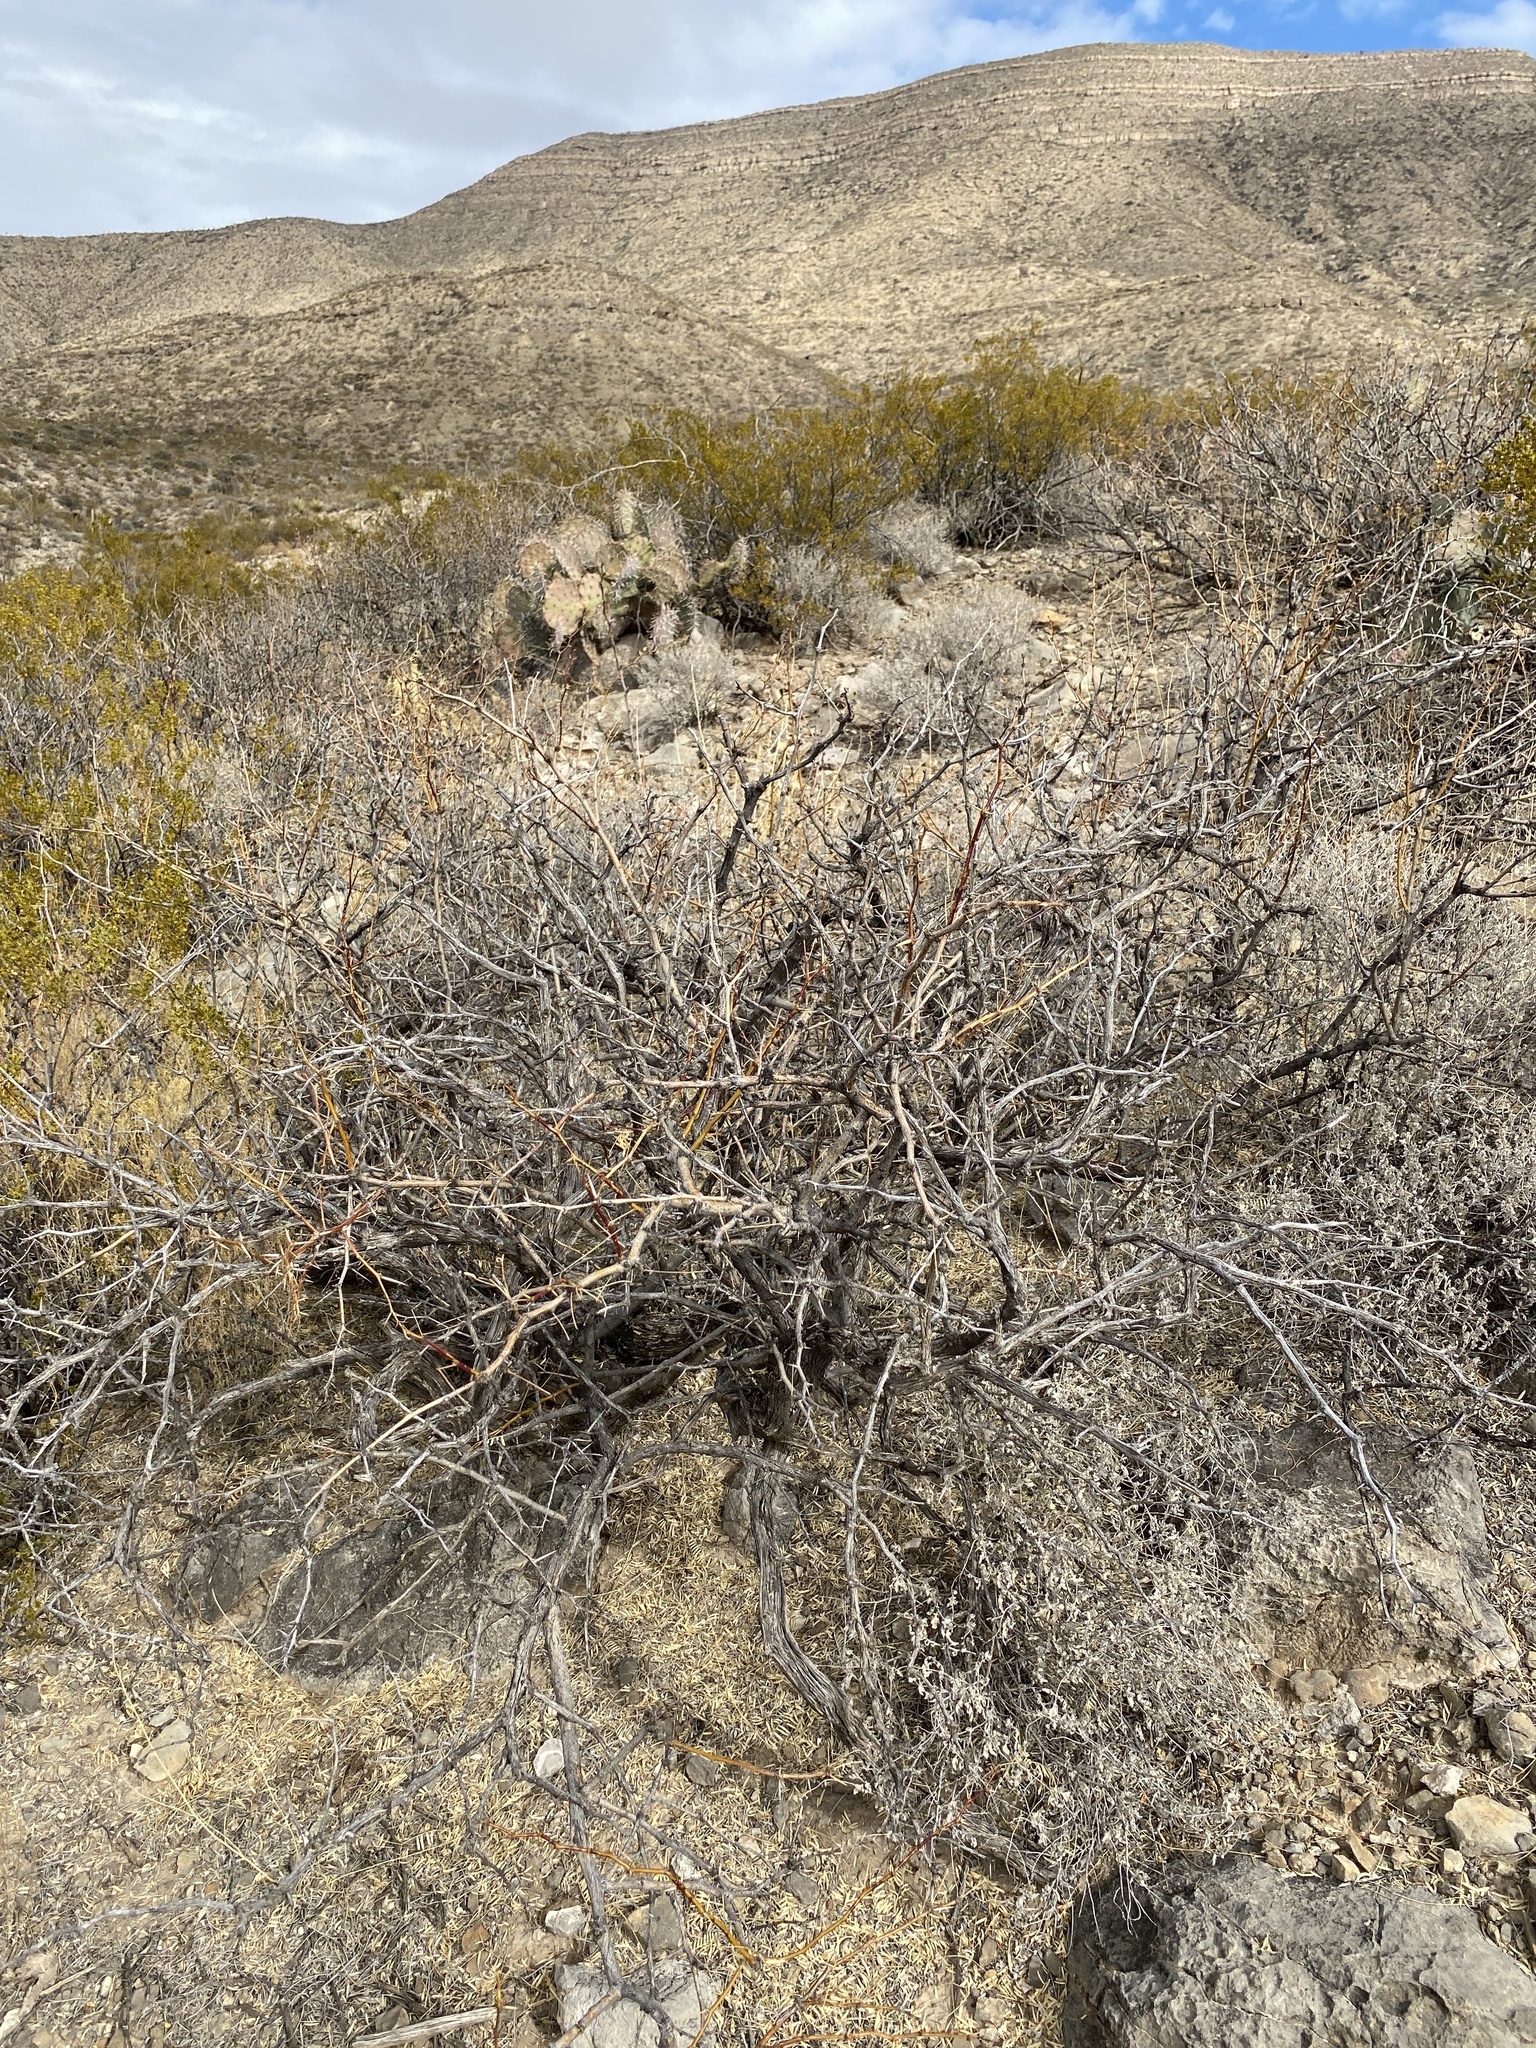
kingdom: Plantae
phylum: Tracheophyta
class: Magnoliopsida
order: Fabales
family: Fabaceae
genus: Prosopis
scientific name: Prosopis glandulosa
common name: Honey mesquite
